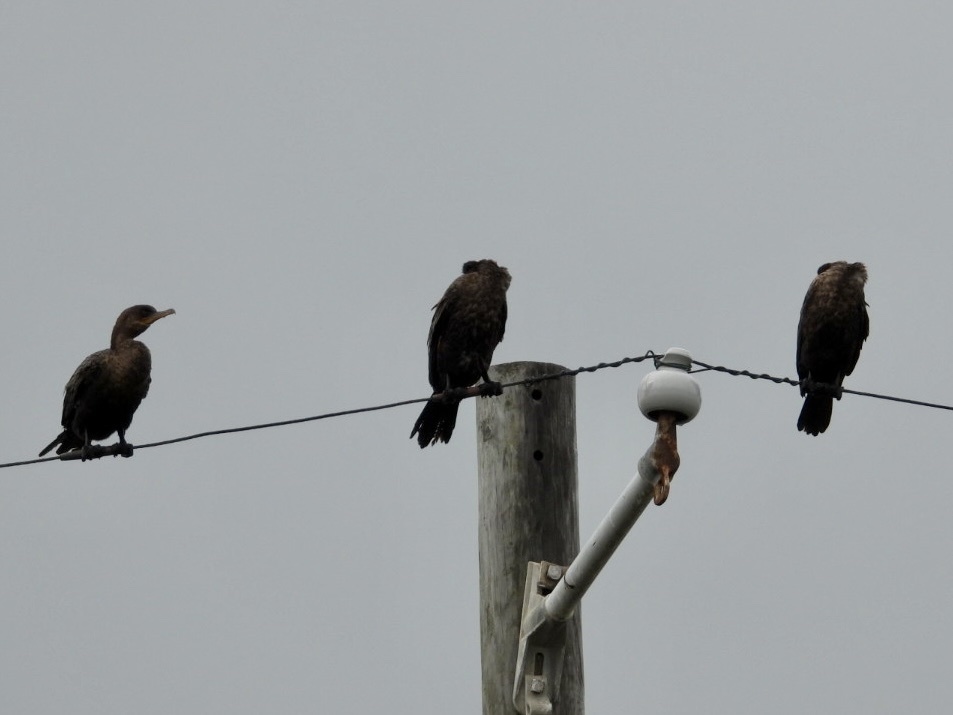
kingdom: Animalia
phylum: Chordata
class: Aves
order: Suliformes
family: Phalacrocoracidae
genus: Phalacrocorax
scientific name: Phalacrocorax brasilianus
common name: Neotropic cormorant
